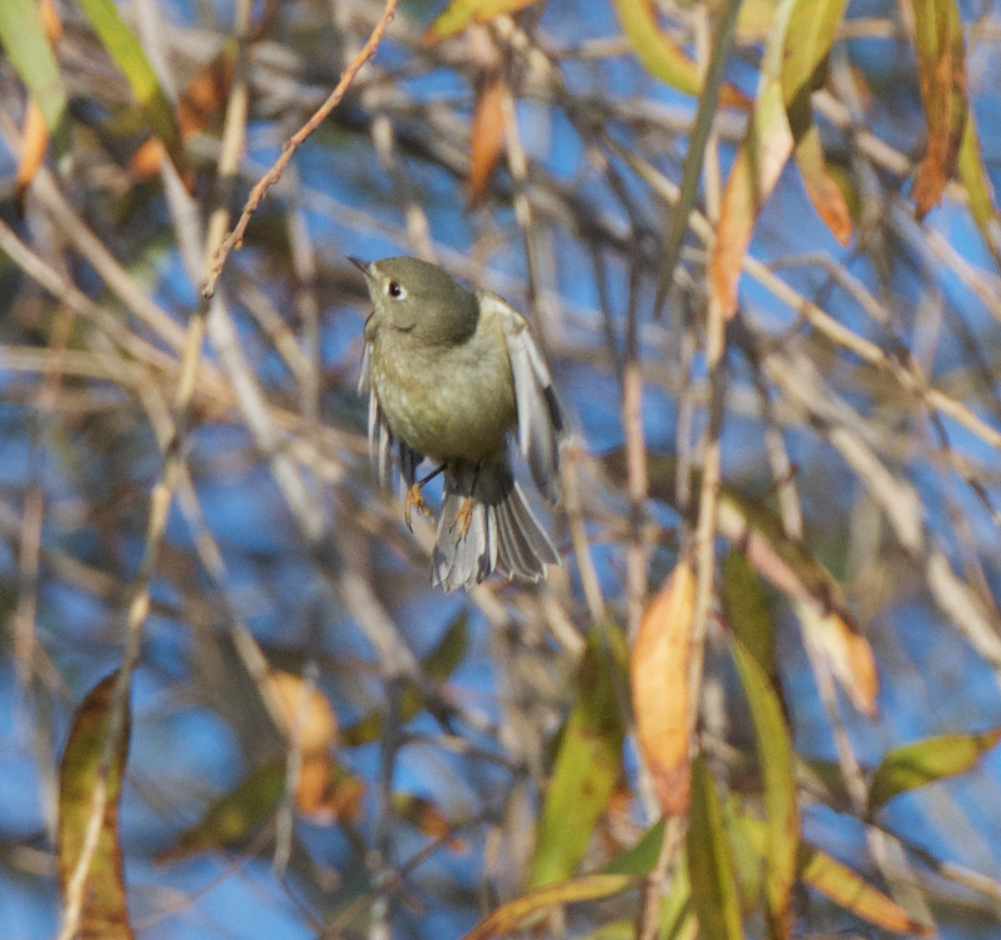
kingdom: Animalia
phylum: Chordata
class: Aves
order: Passeriformes
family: Regulidae
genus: Regulus
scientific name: Regulus calendula
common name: Ruby-crowned kinglet
